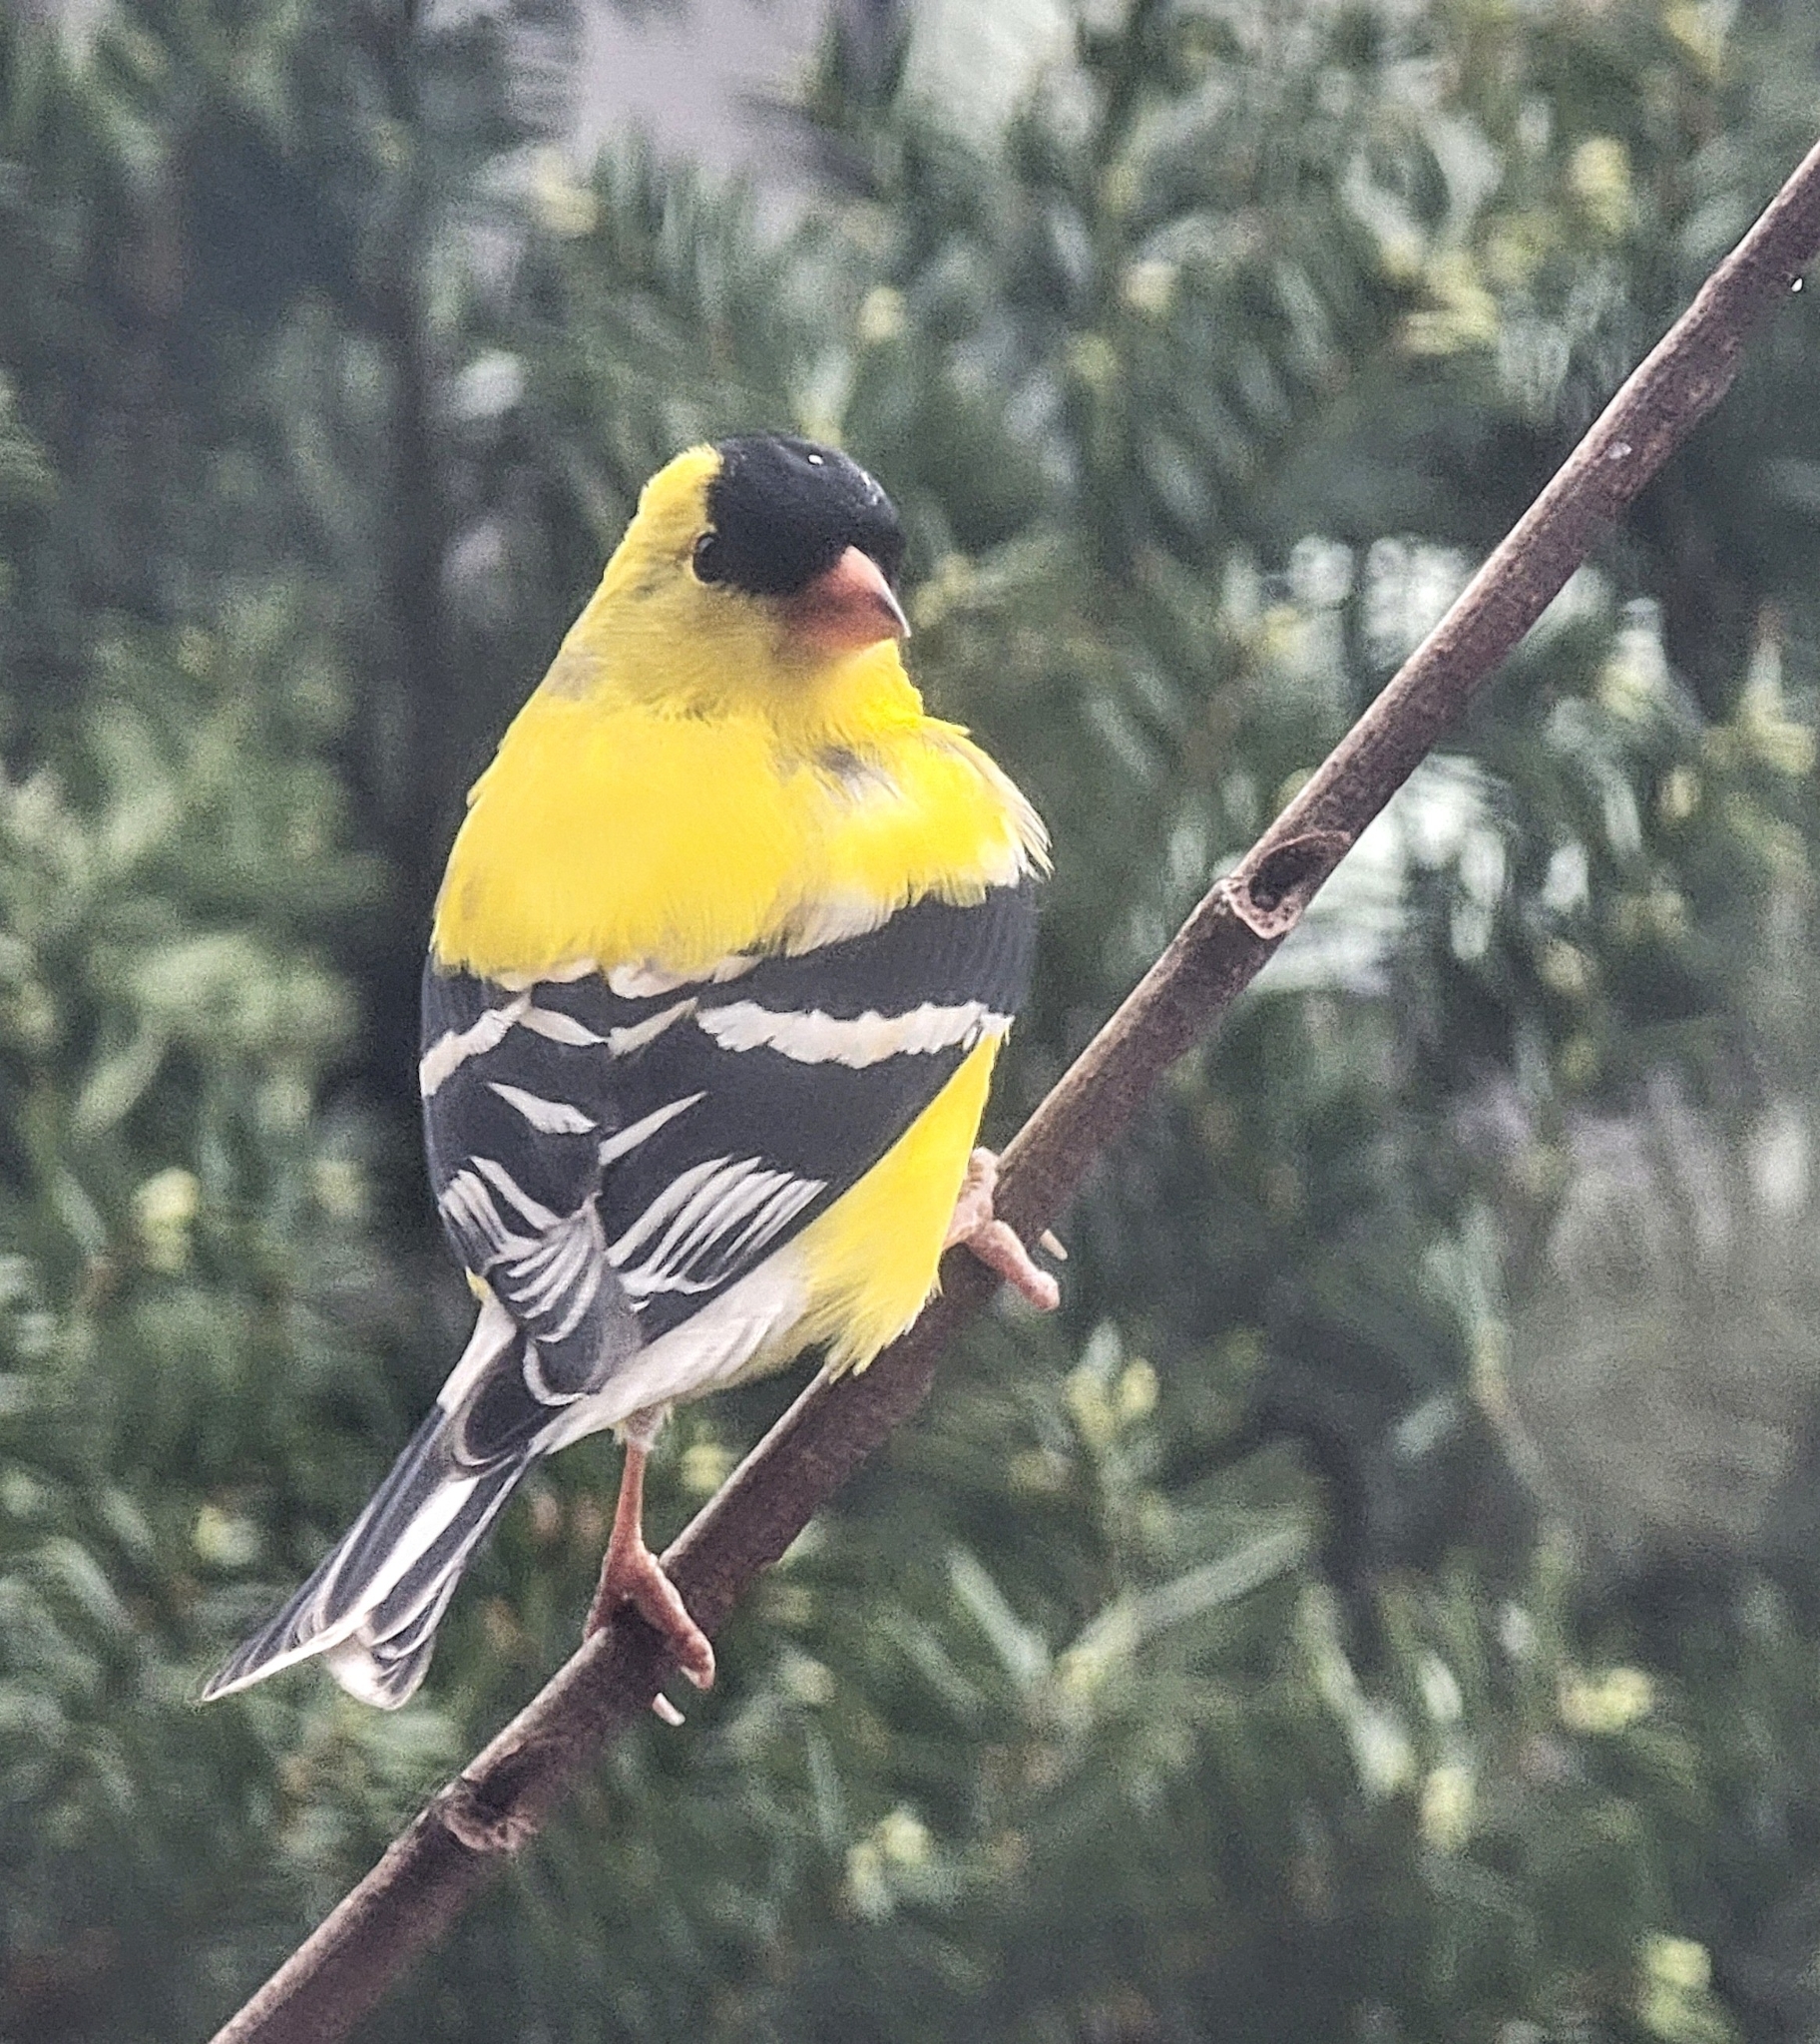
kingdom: Animalia
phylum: Chordata
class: Aves
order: Passeriformes
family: Fringillidae
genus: Spinus
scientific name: Spinus tristis
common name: American goldfinch
